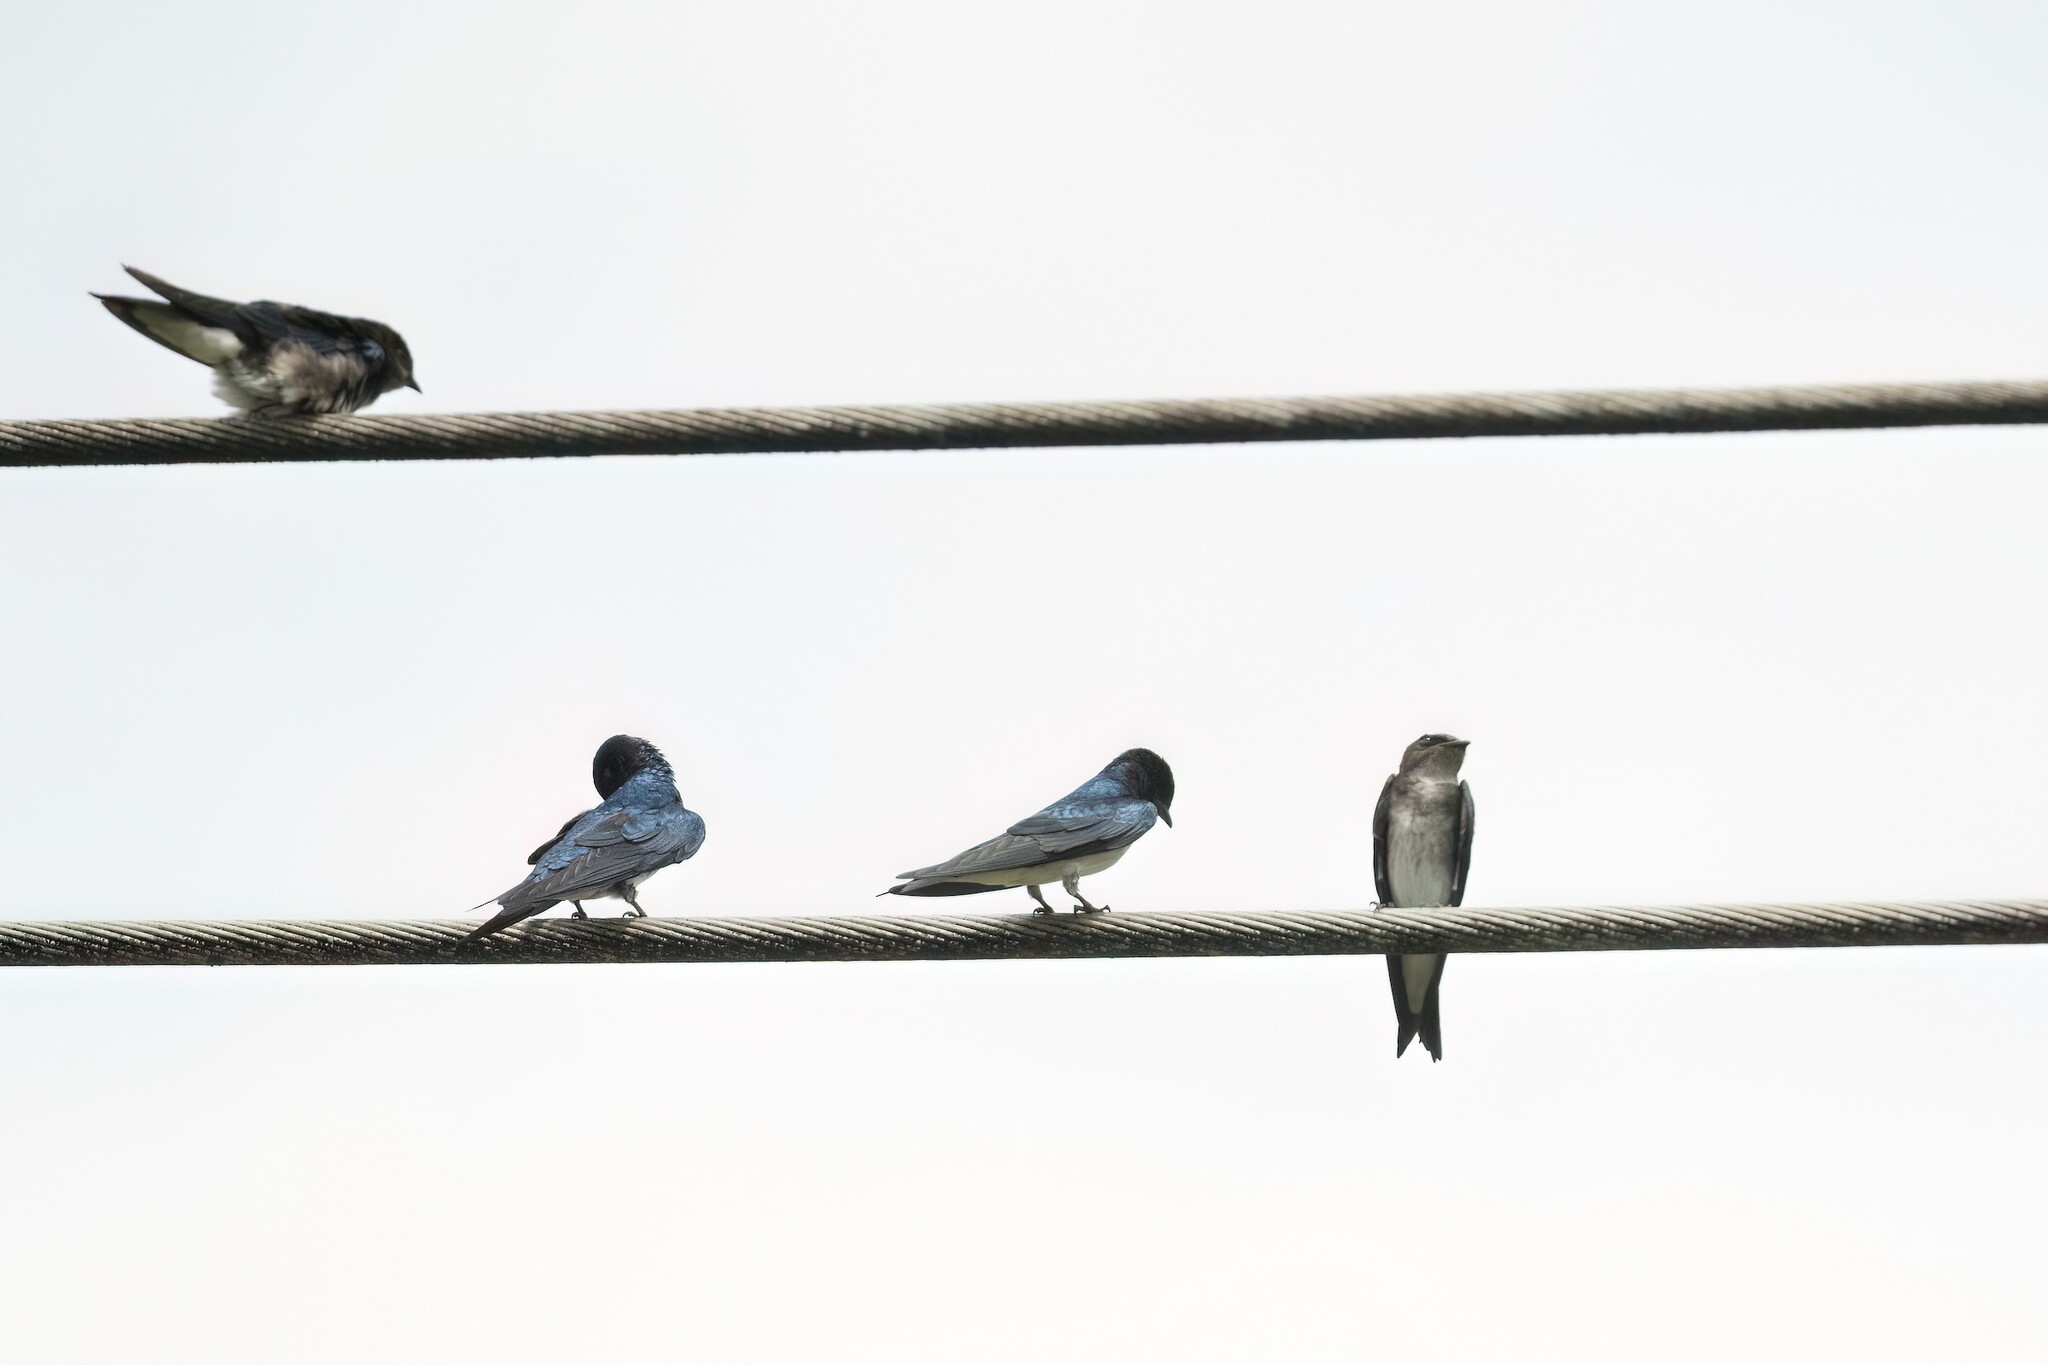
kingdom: Animalia
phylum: Chordata
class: Aves
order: Passeriformes
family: Hirundinidae
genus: Progne
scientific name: Progne chalybea
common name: Grey-breasted martin
